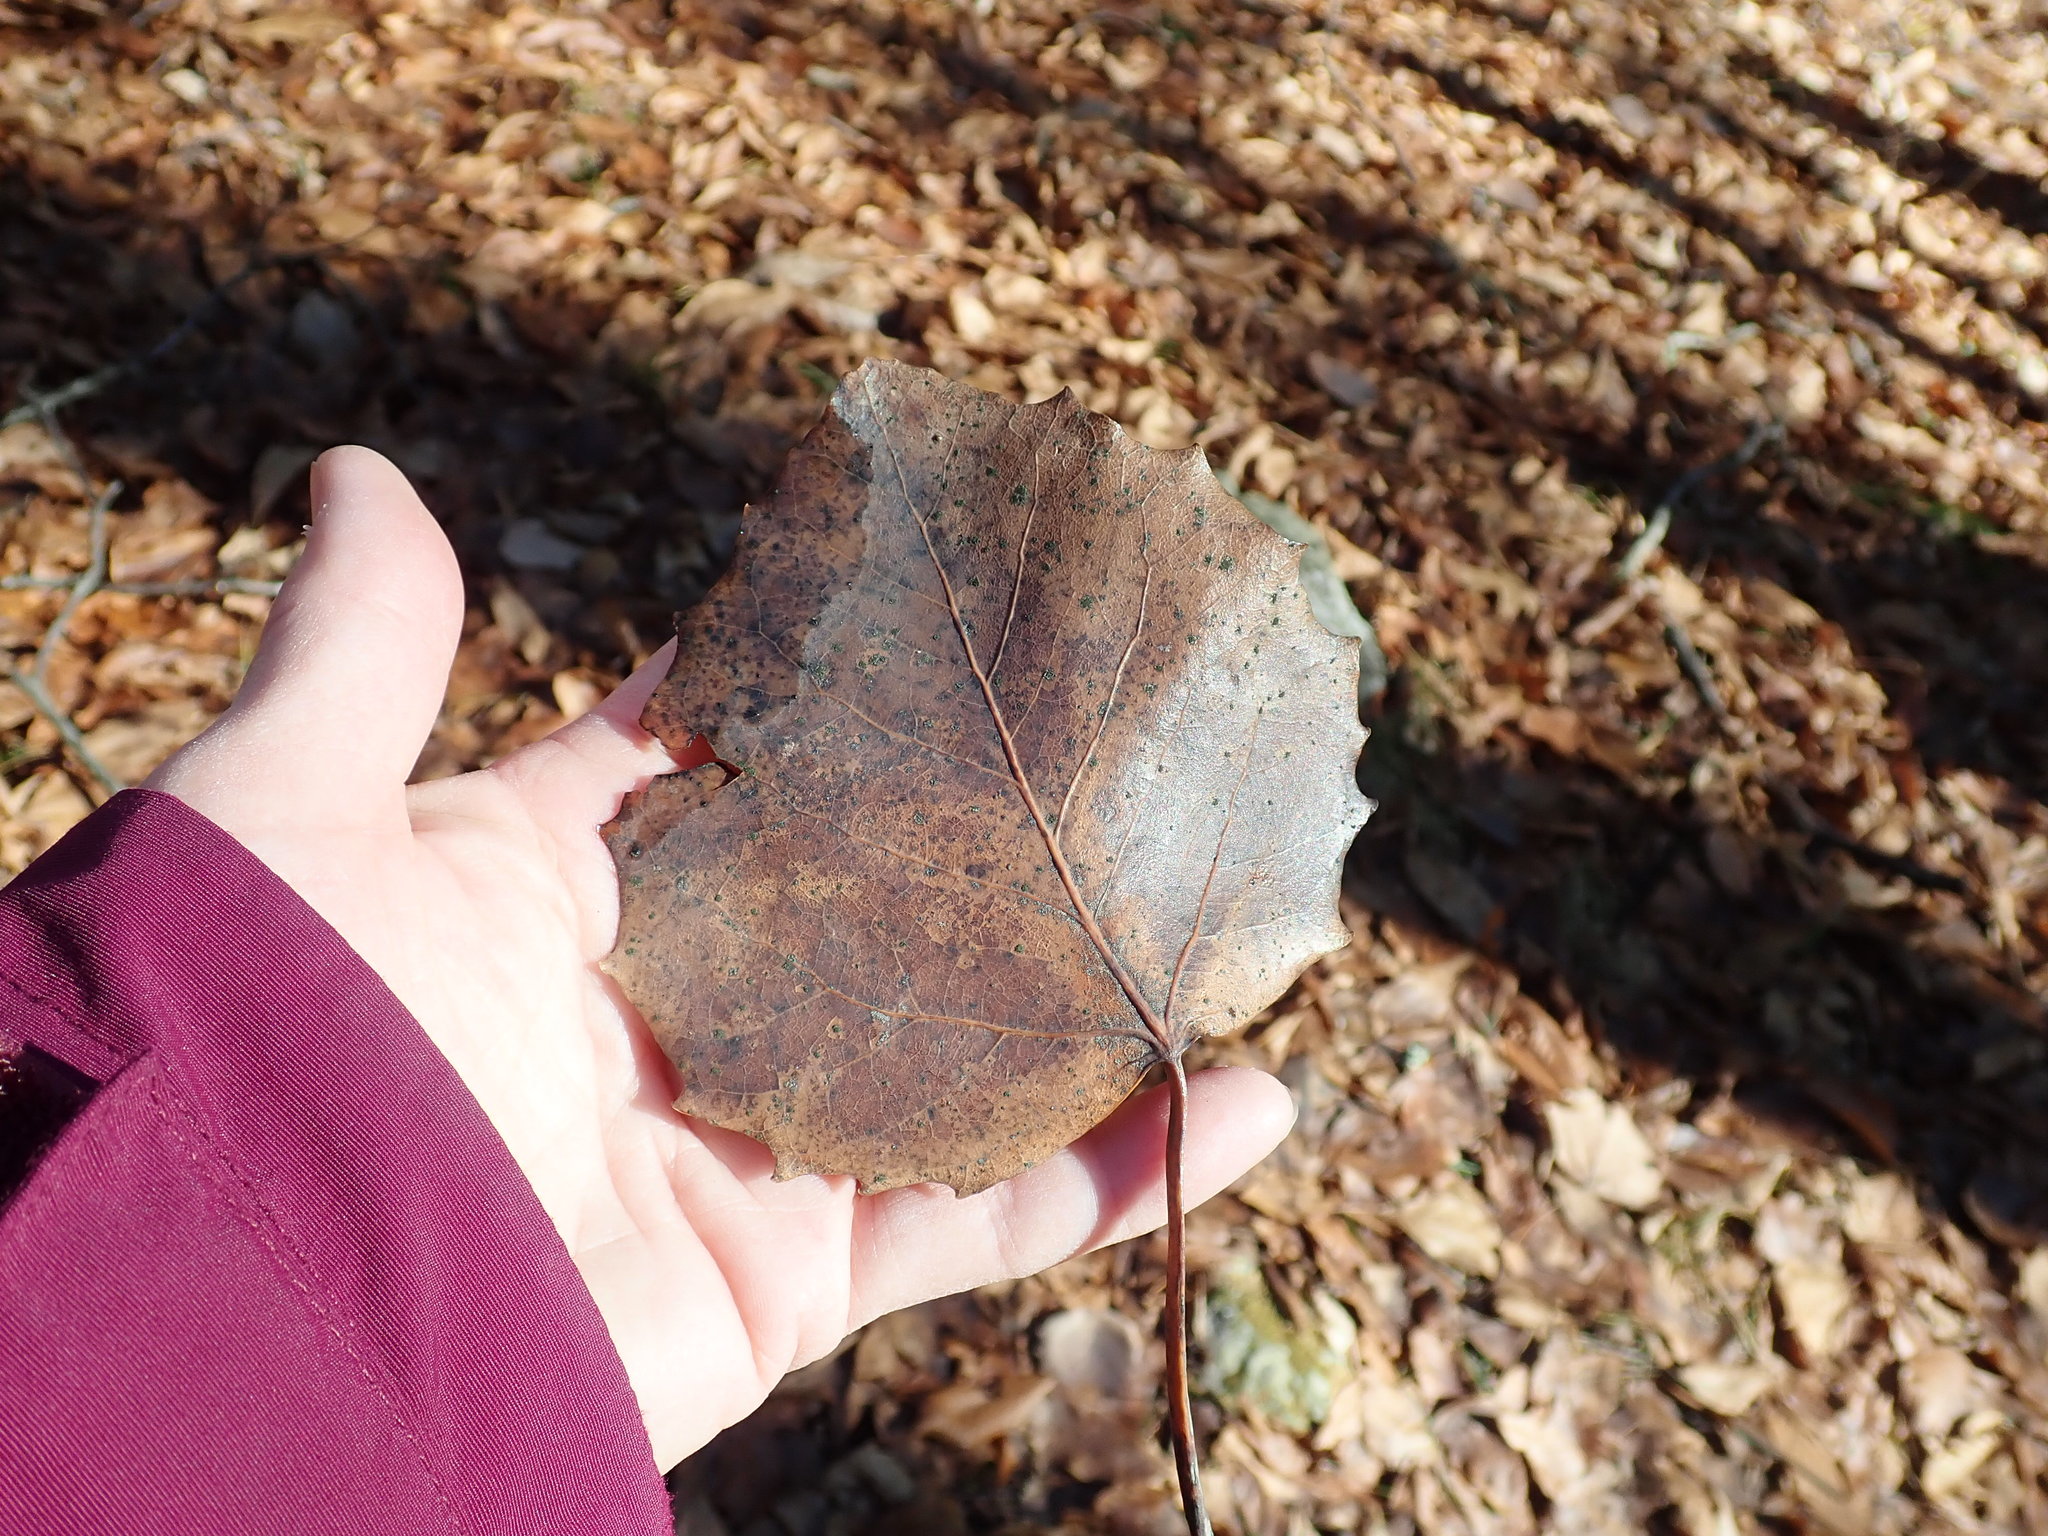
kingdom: Plantae
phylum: Tracheophyta
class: Magnoliopsida
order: Malpighiales
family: Salicaceae
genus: Populus
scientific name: Populus grandidentata
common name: Bigtooth aspen
